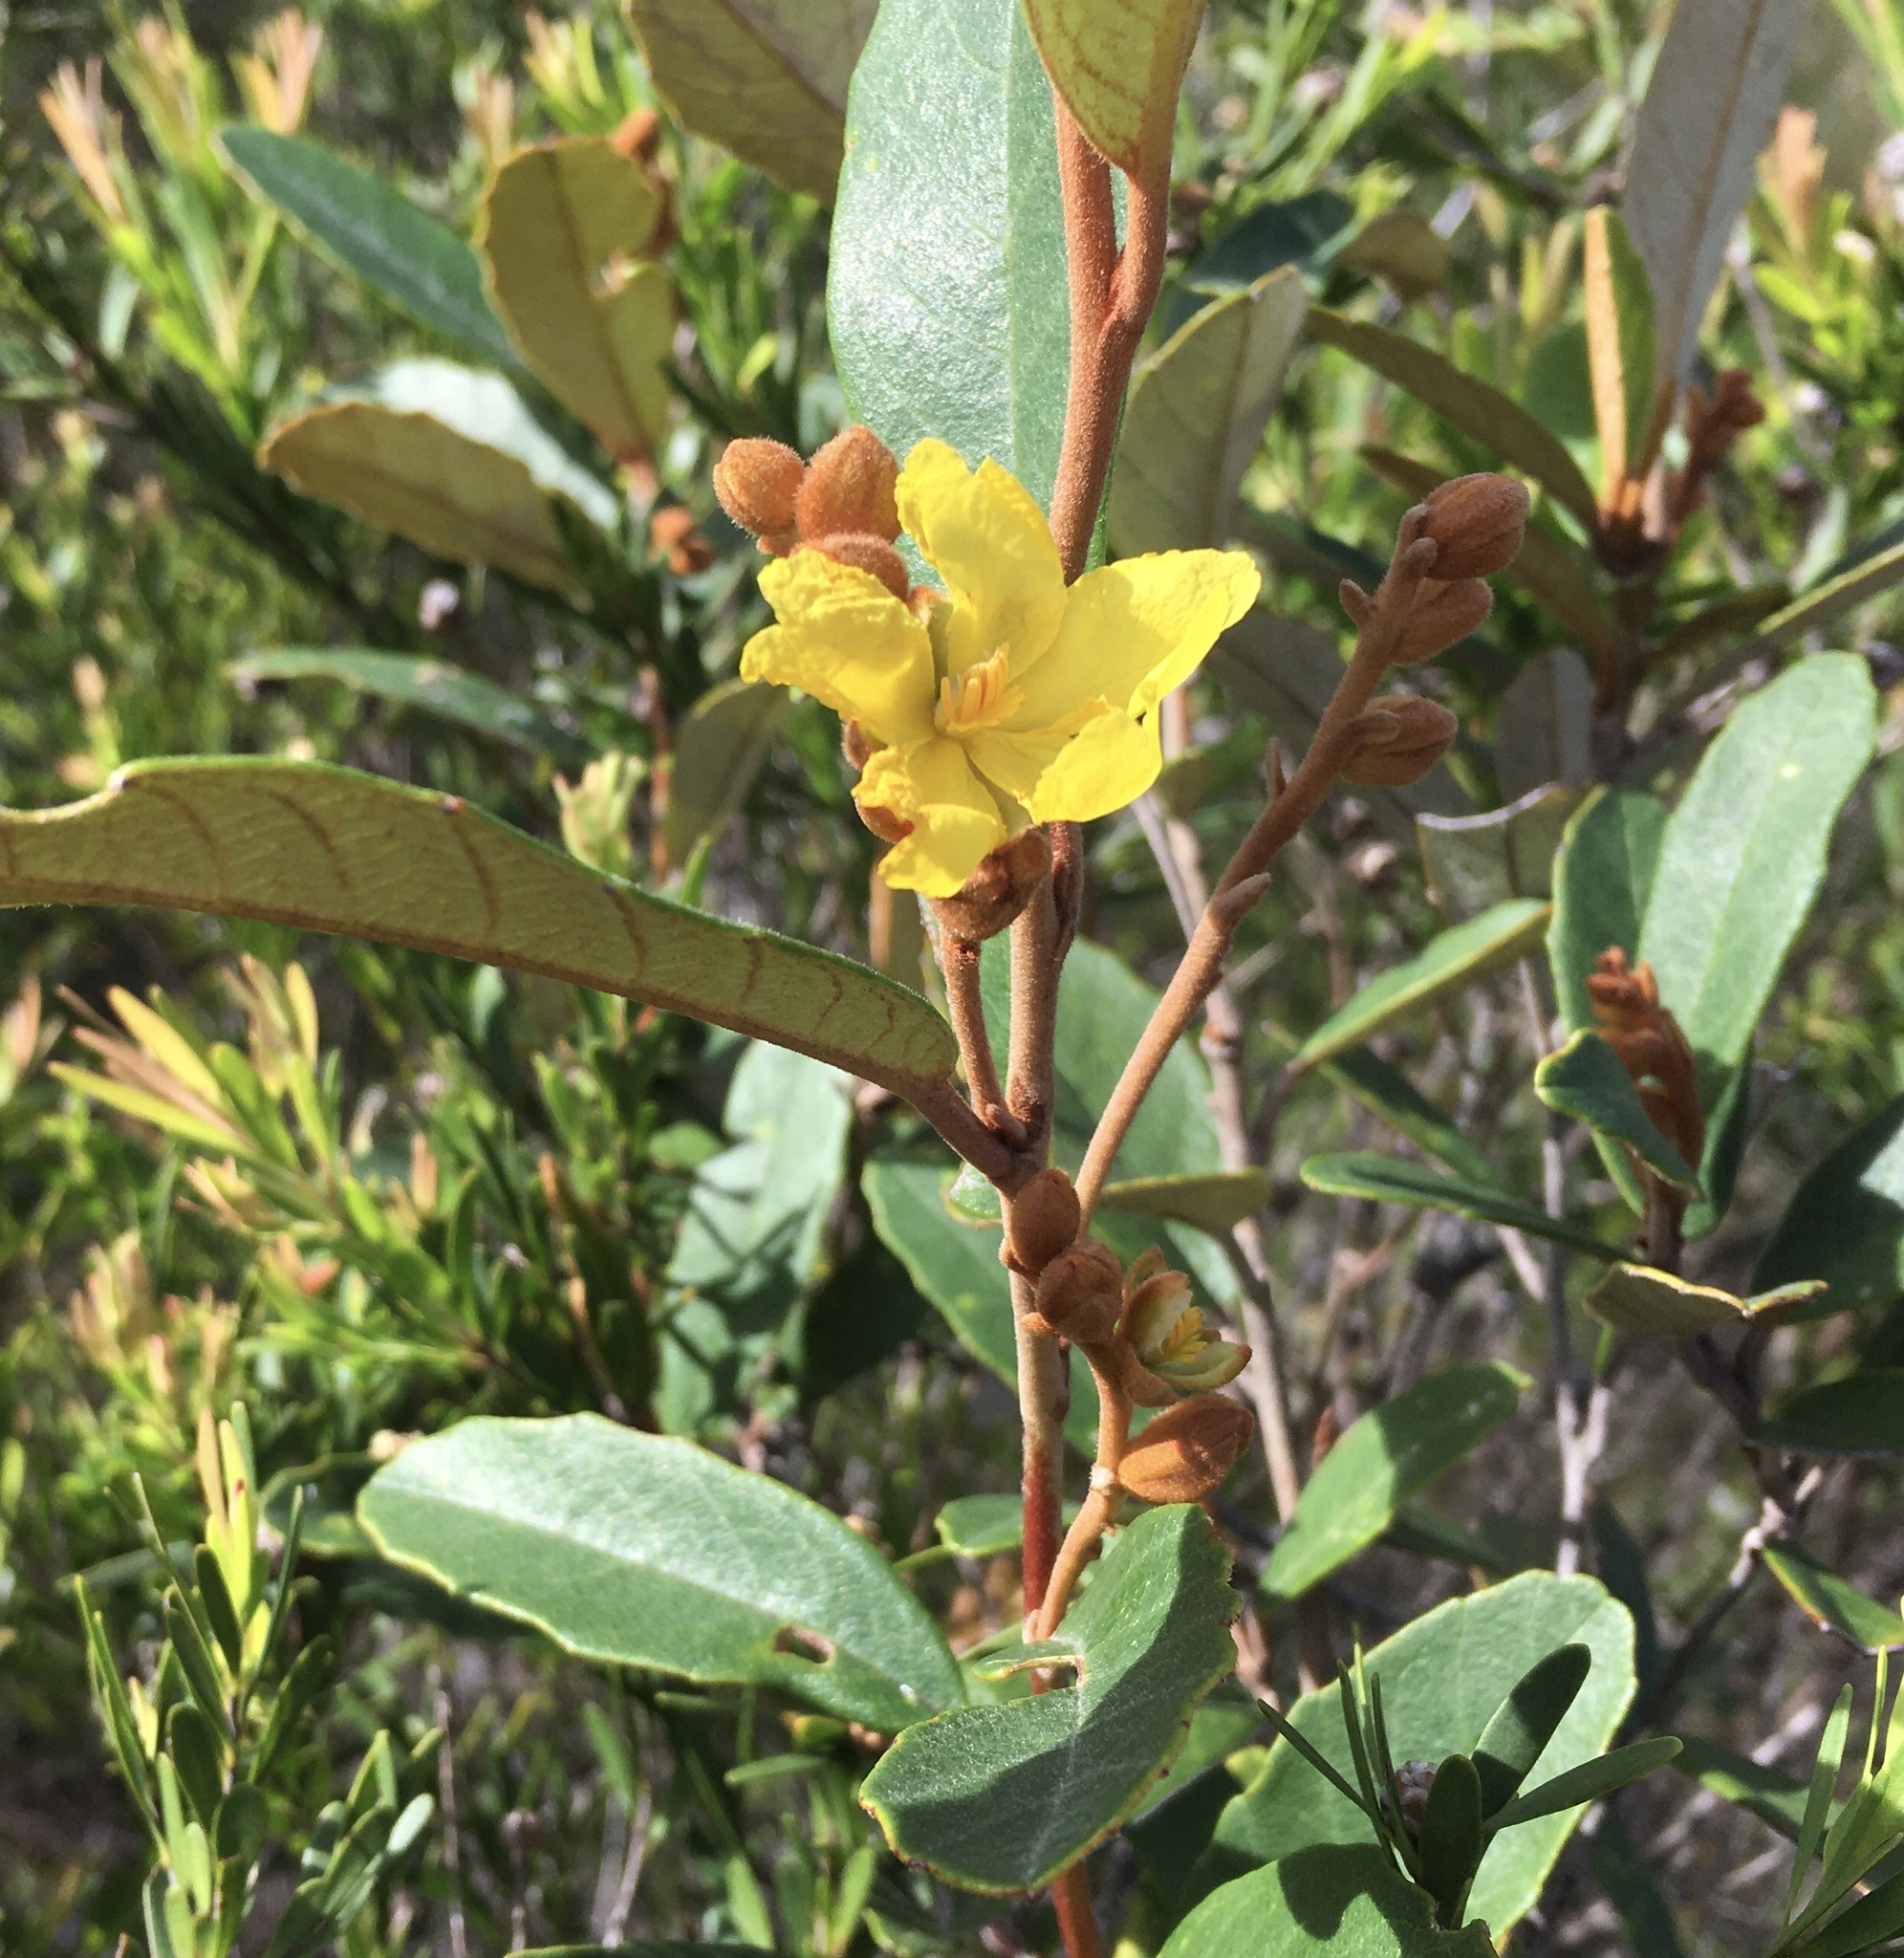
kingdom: Plantae
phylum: Tracheophyta
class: Magnoliopsida
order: Dilleniales
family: Dilleniaceae
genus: Hibbertia
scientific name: Hibbertia banksii
